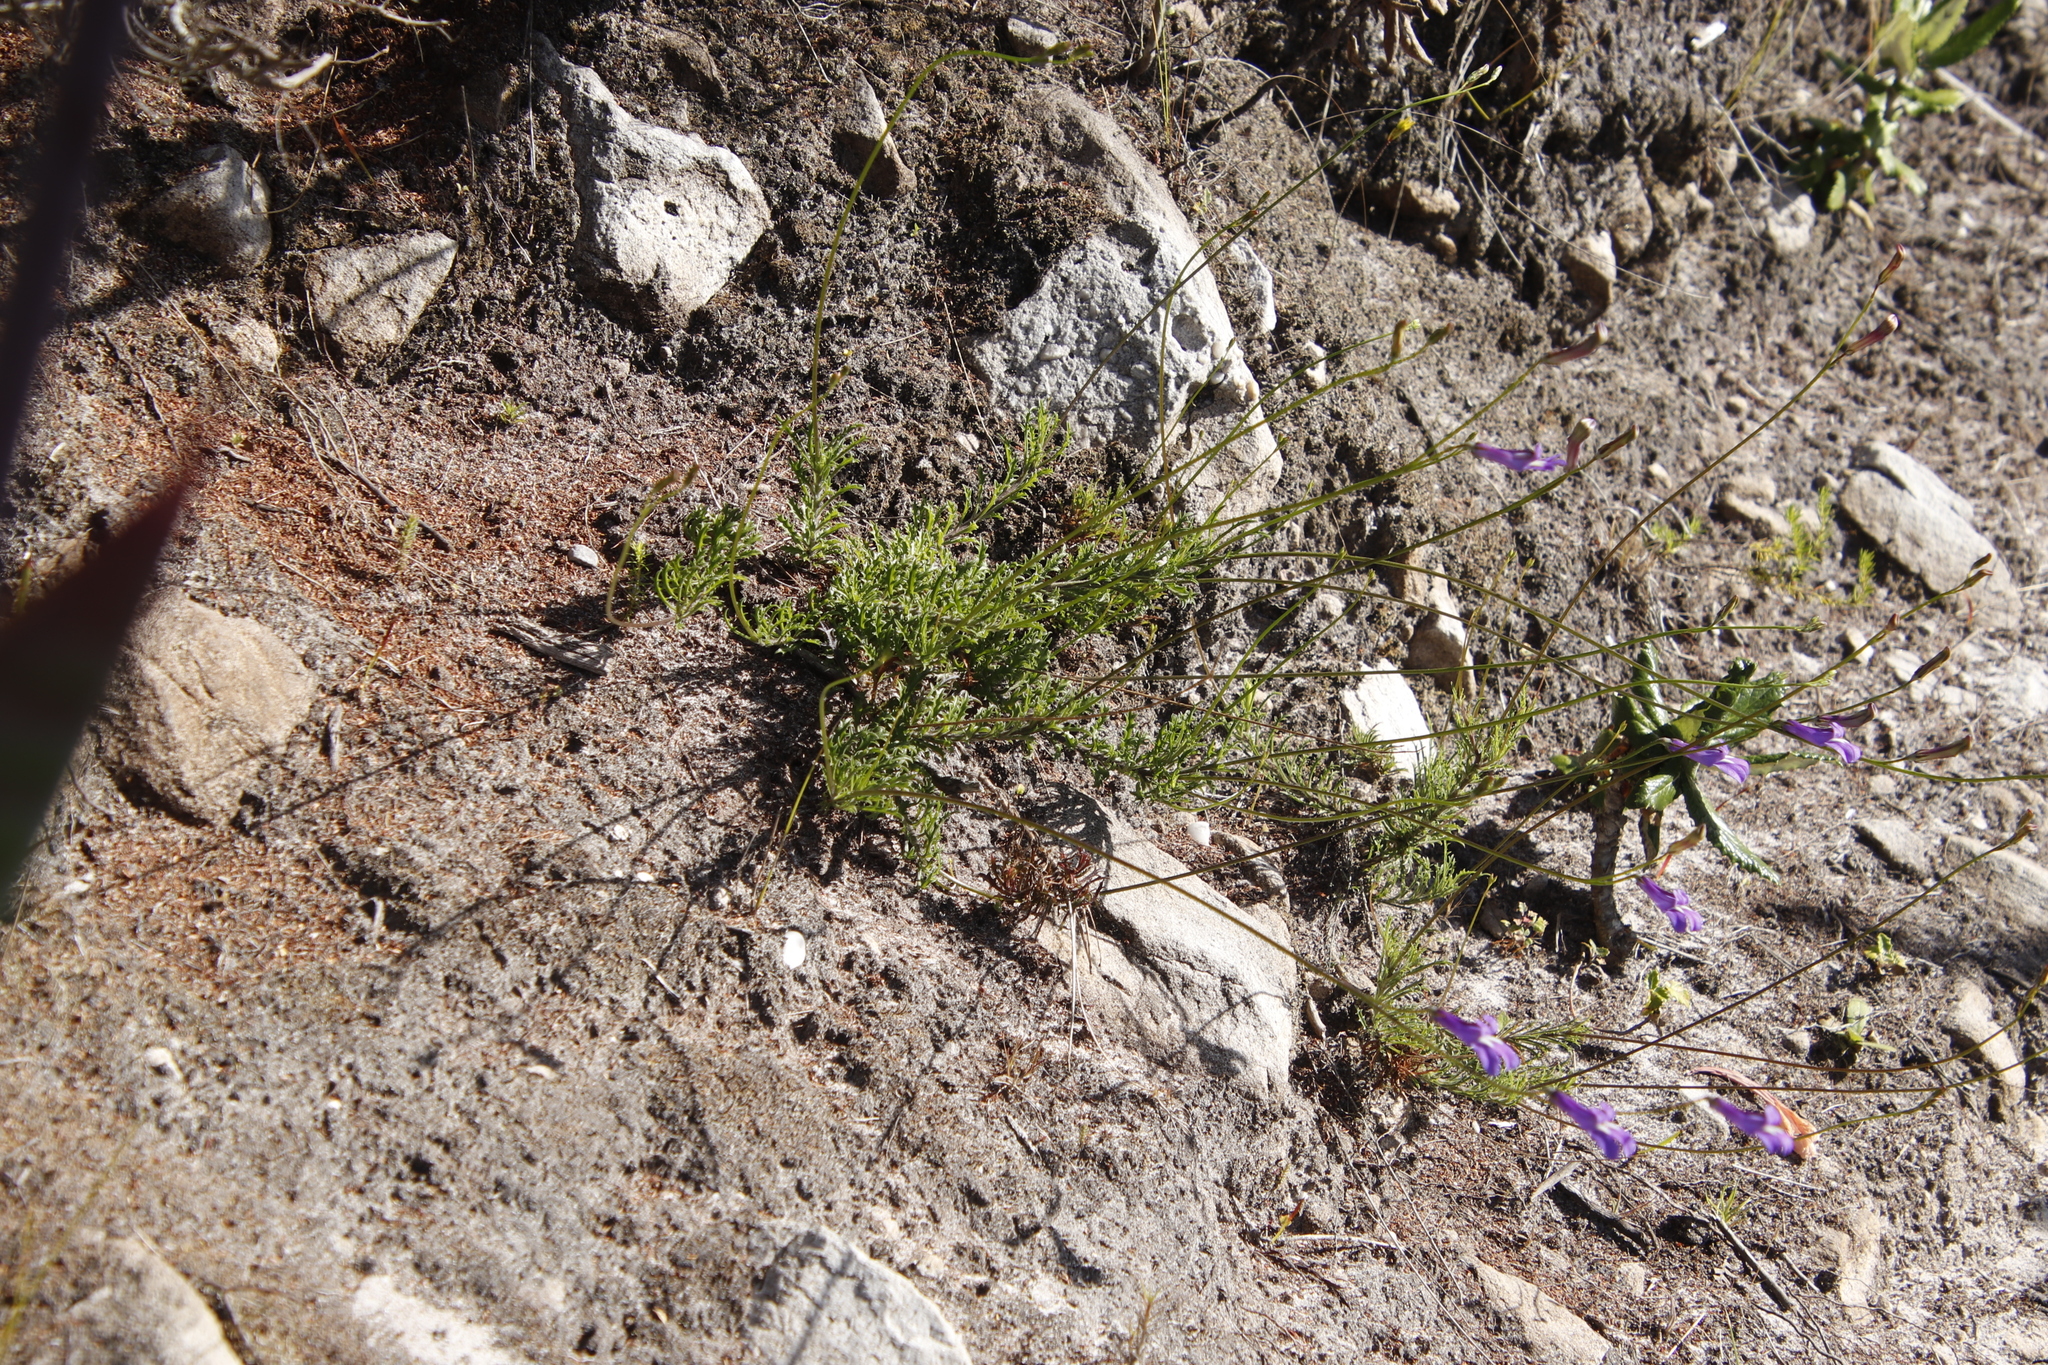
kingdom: Plantae
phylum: Tracheophyta
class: Magnoliopsida
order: Asterales
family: Campanulaceae
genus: Lobelia
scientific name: Lobelia coronopifolia
